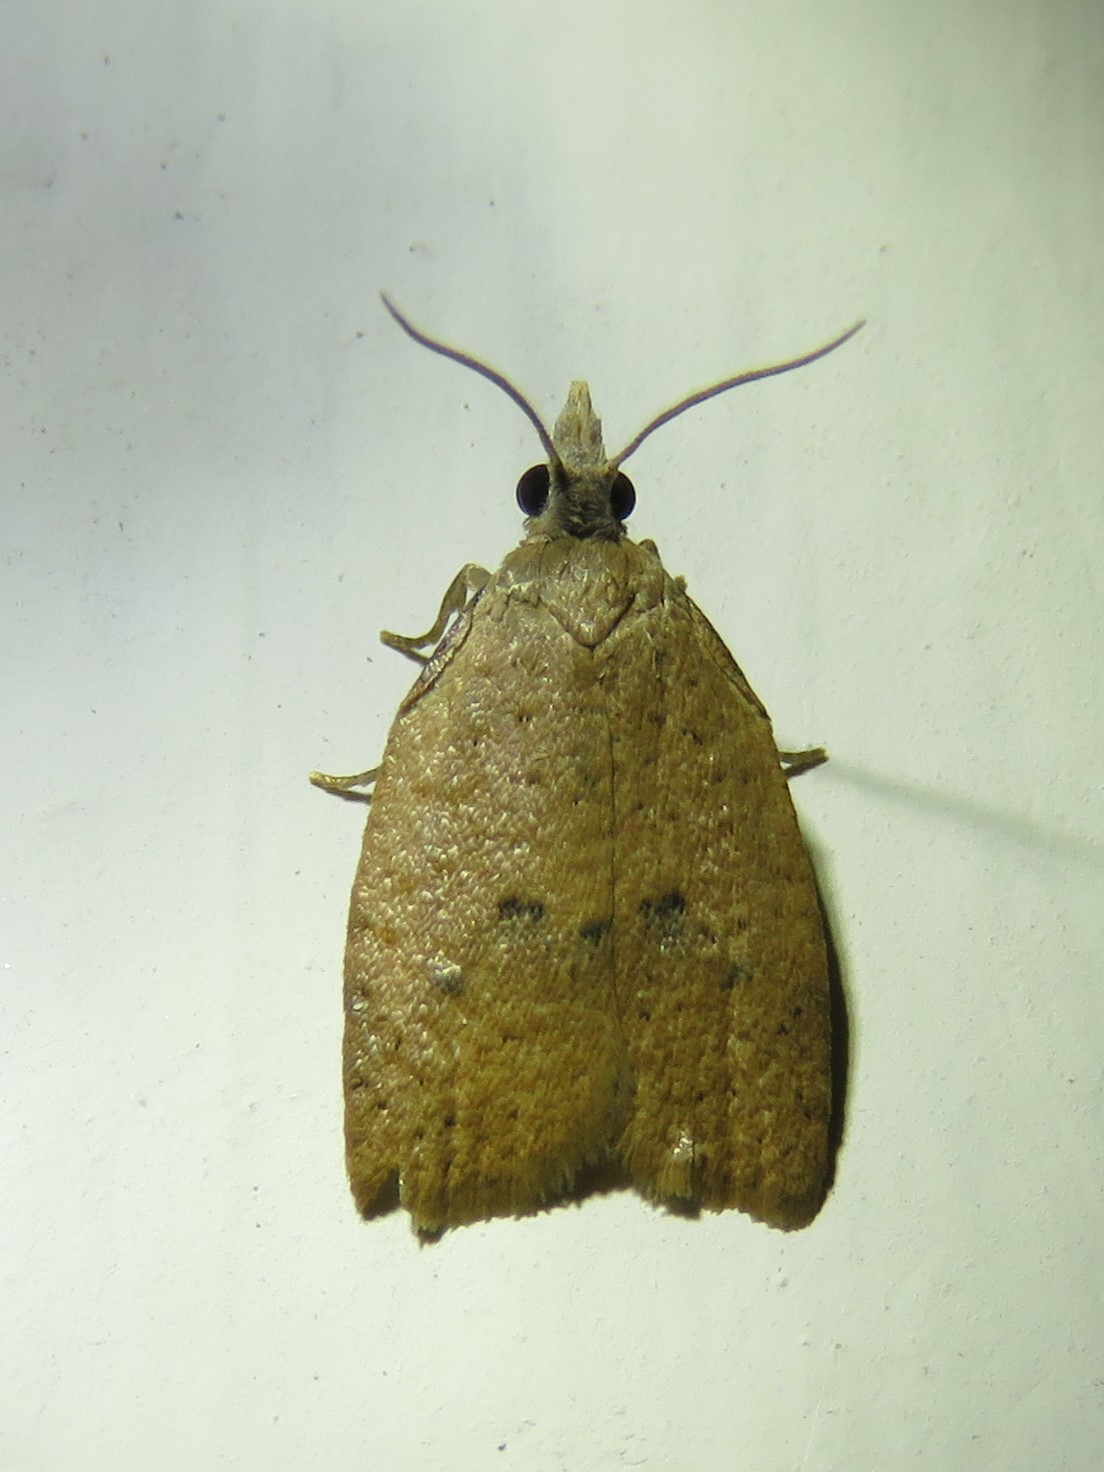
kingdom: Animalia
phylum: Arthropoda
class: Insecta
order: Lepidoptera
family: Tortricidae
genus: Sparganothoides
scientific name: Sparganothoides lentiginosana
